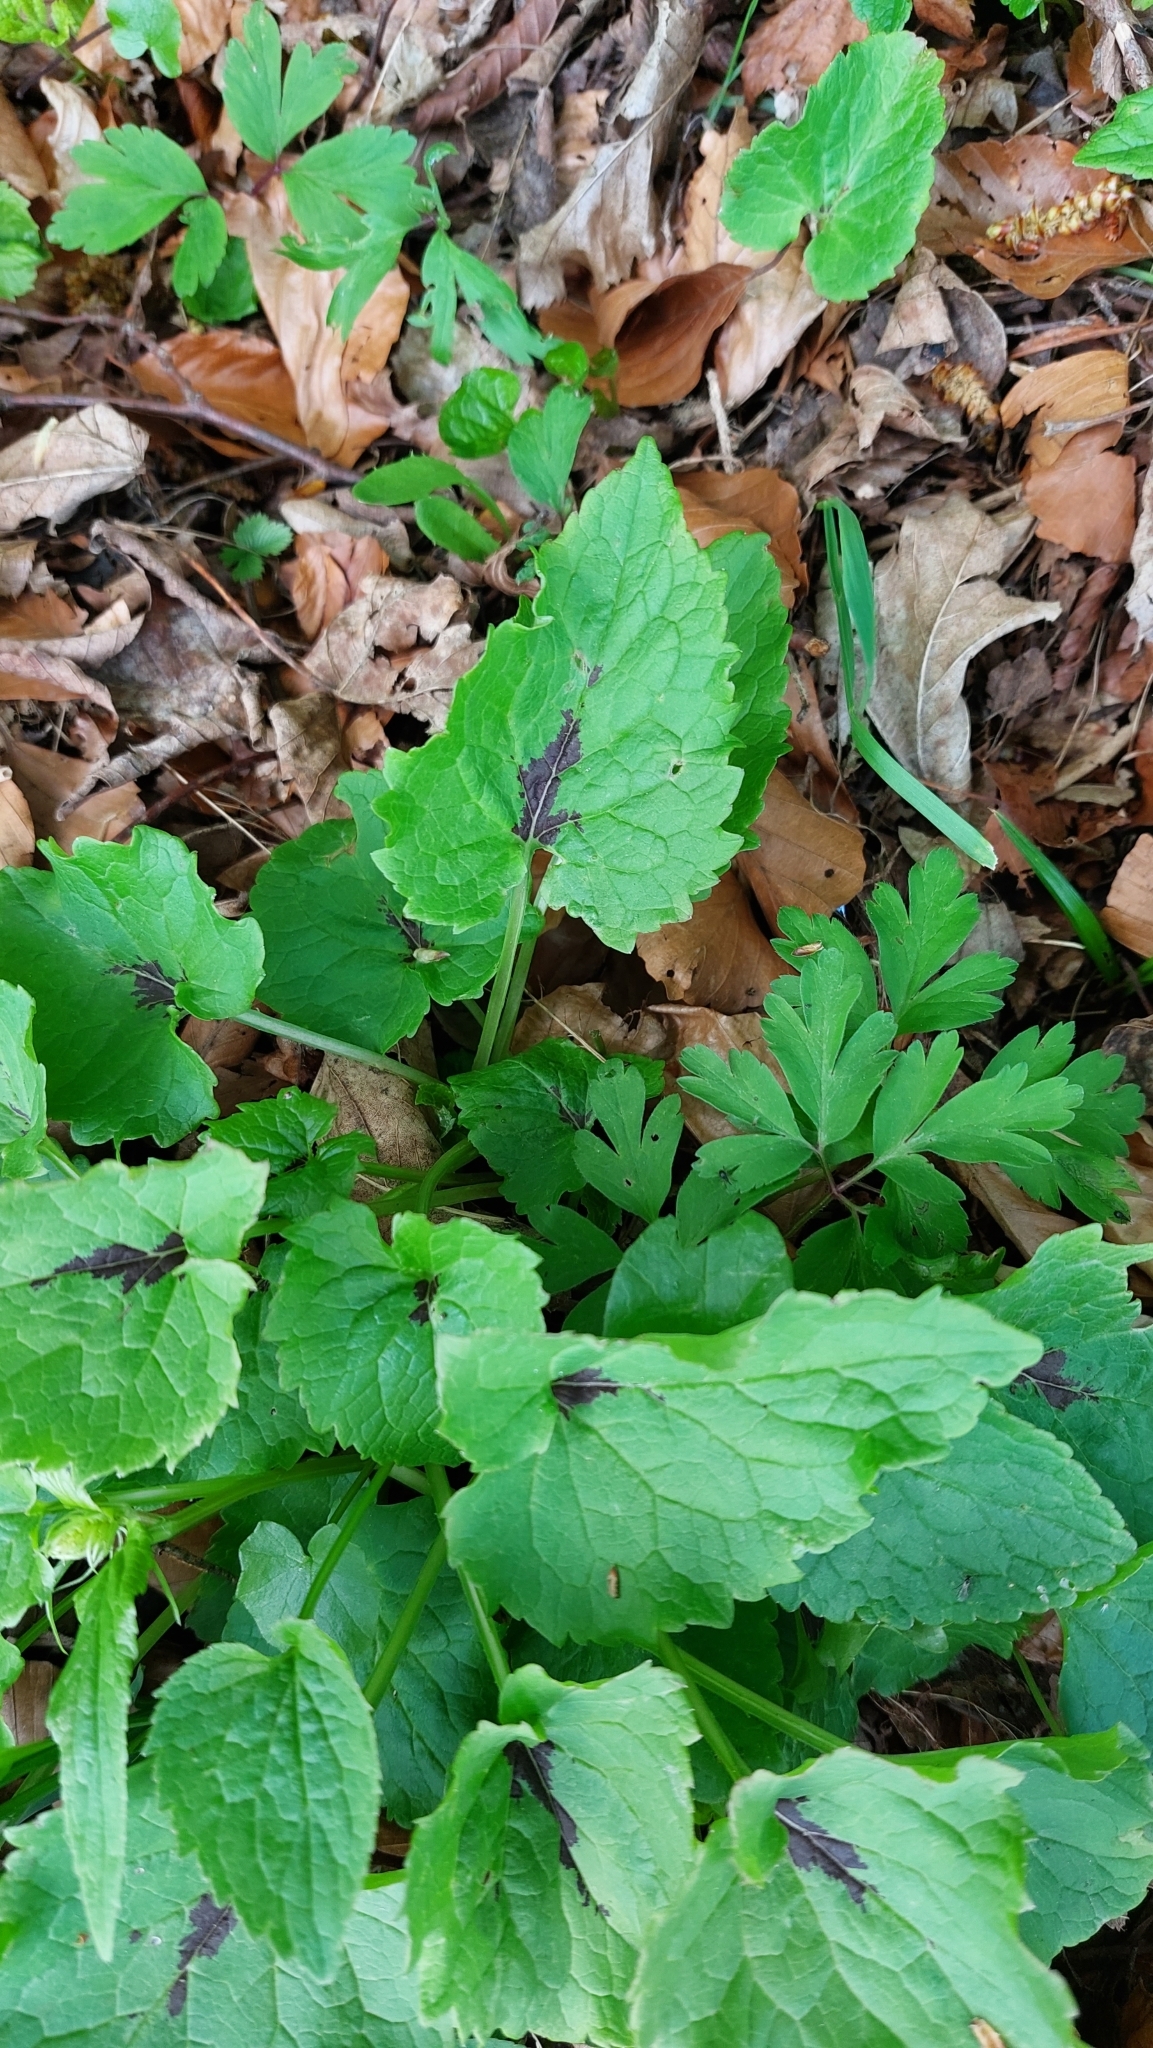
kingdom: Plantae
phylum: Tracheophyta
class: Magnoliopsida
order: Asterales
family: Campanulaceae
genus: Phyteuma
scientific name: Phyteuma spicatum
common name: Spiked rampion
